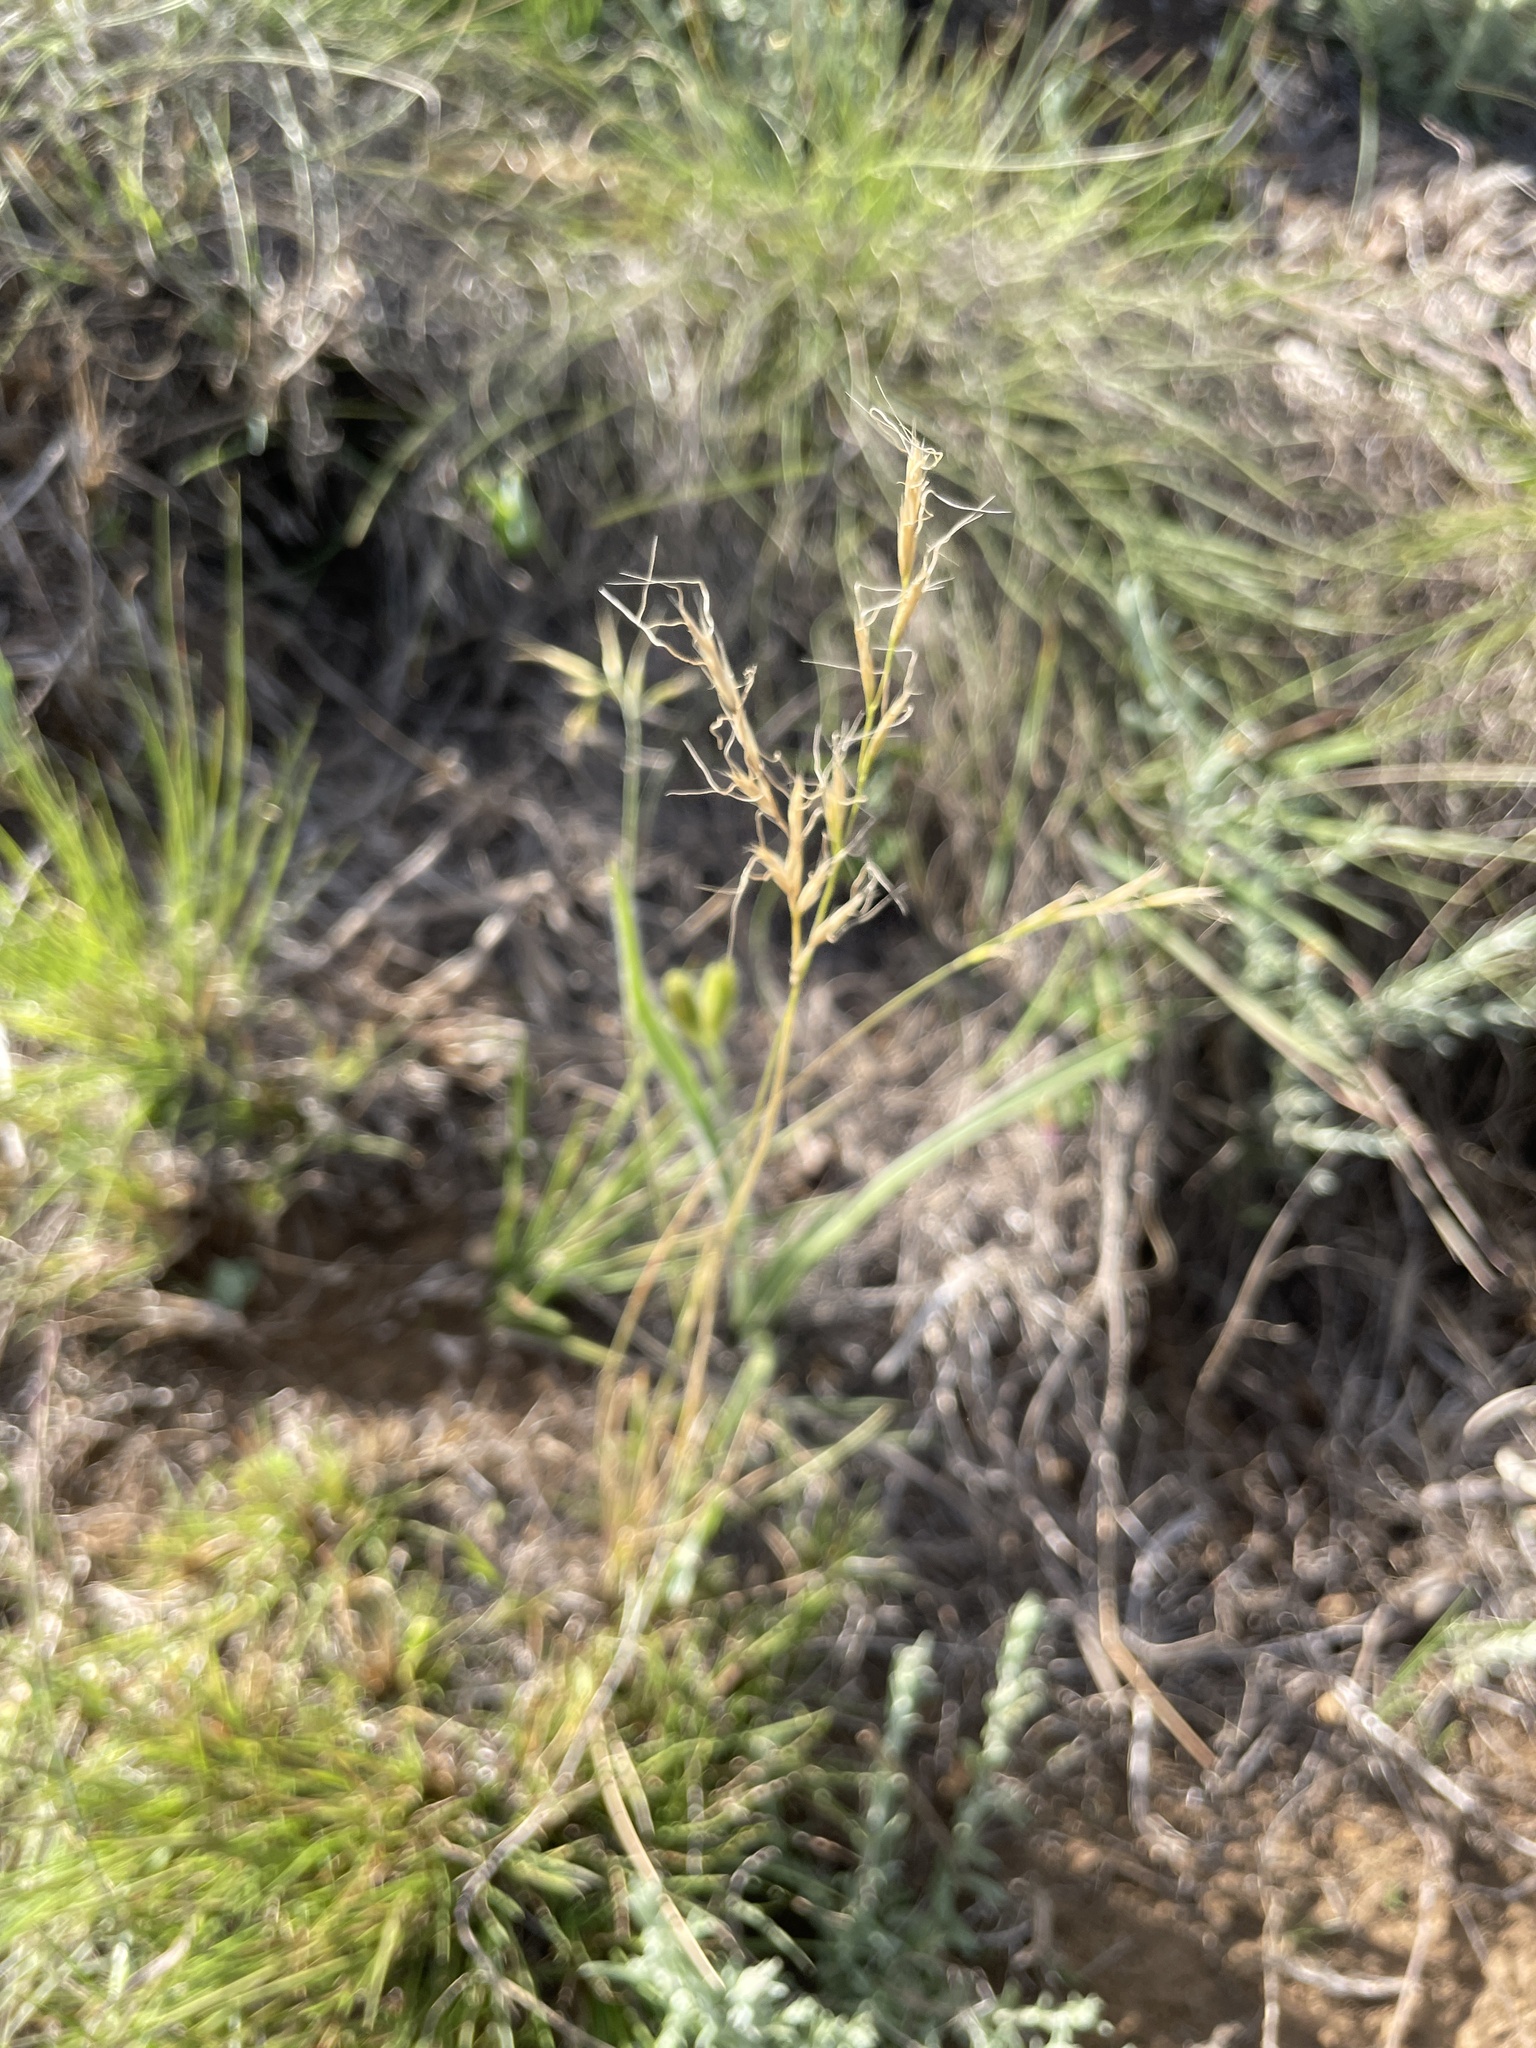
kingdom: Plantae
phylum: Tracheophyta
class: Liliopsida
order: Poales
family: Poaceae
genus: Trisetopsis
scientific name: Trisetopsis imberbis
